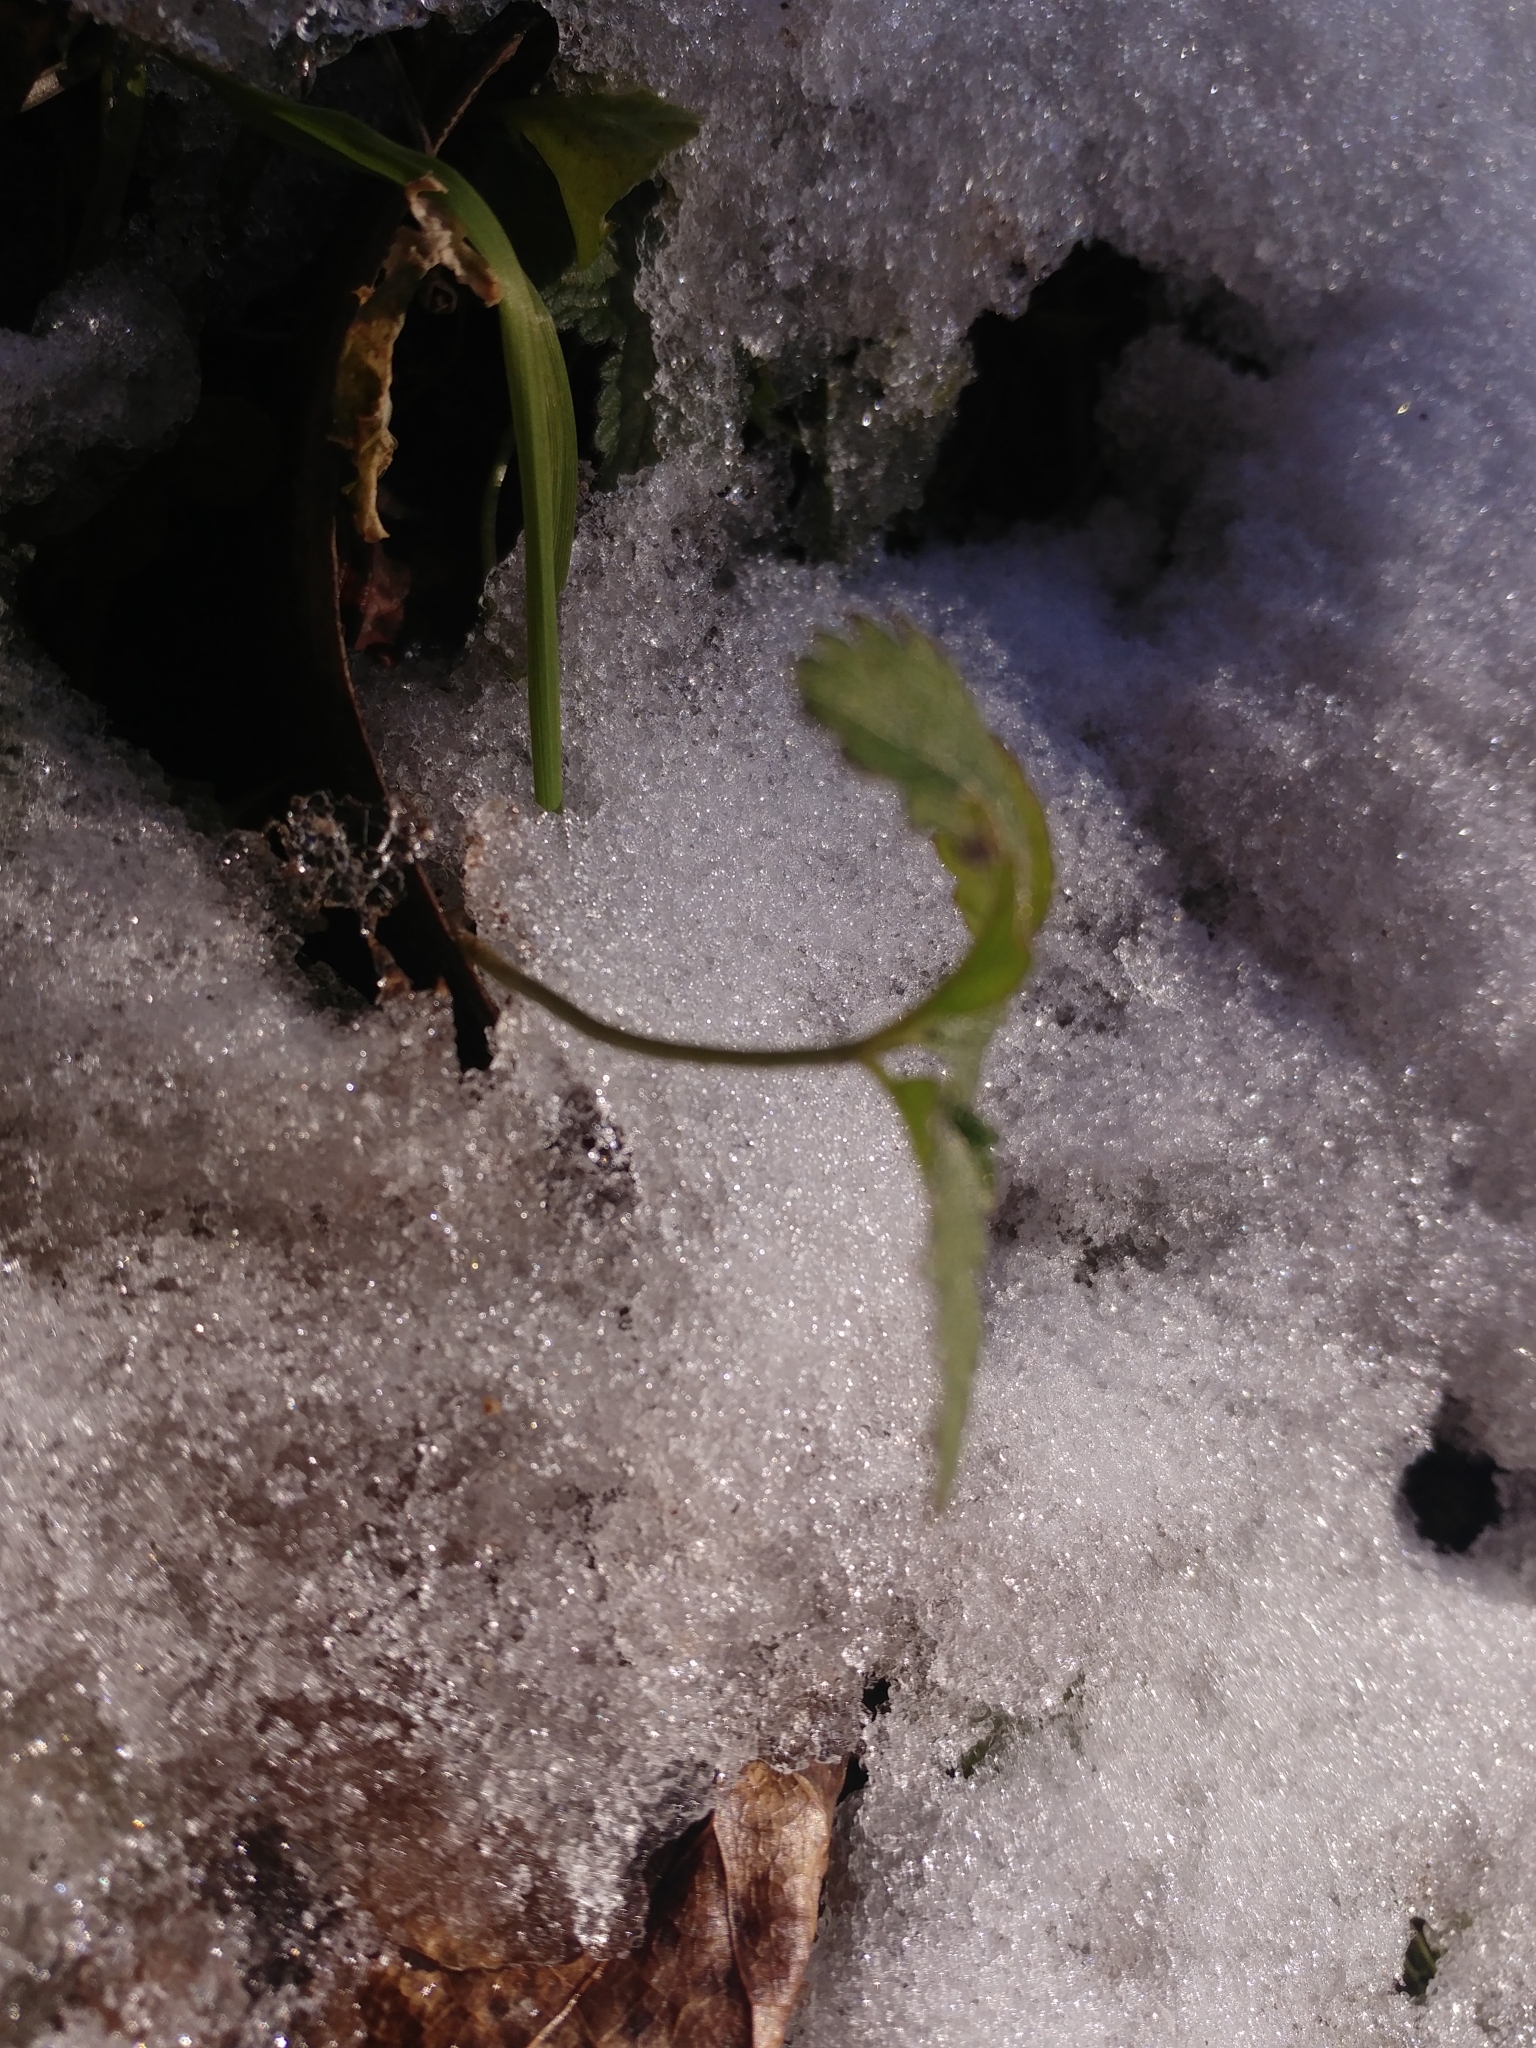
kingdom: Plantae
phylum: Tracheophyta
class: Magnoliopsida
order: Rosales
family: Rosaceae
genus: Potentilla
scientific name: Potentilla indica
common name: Yellow-flowered strawberry
